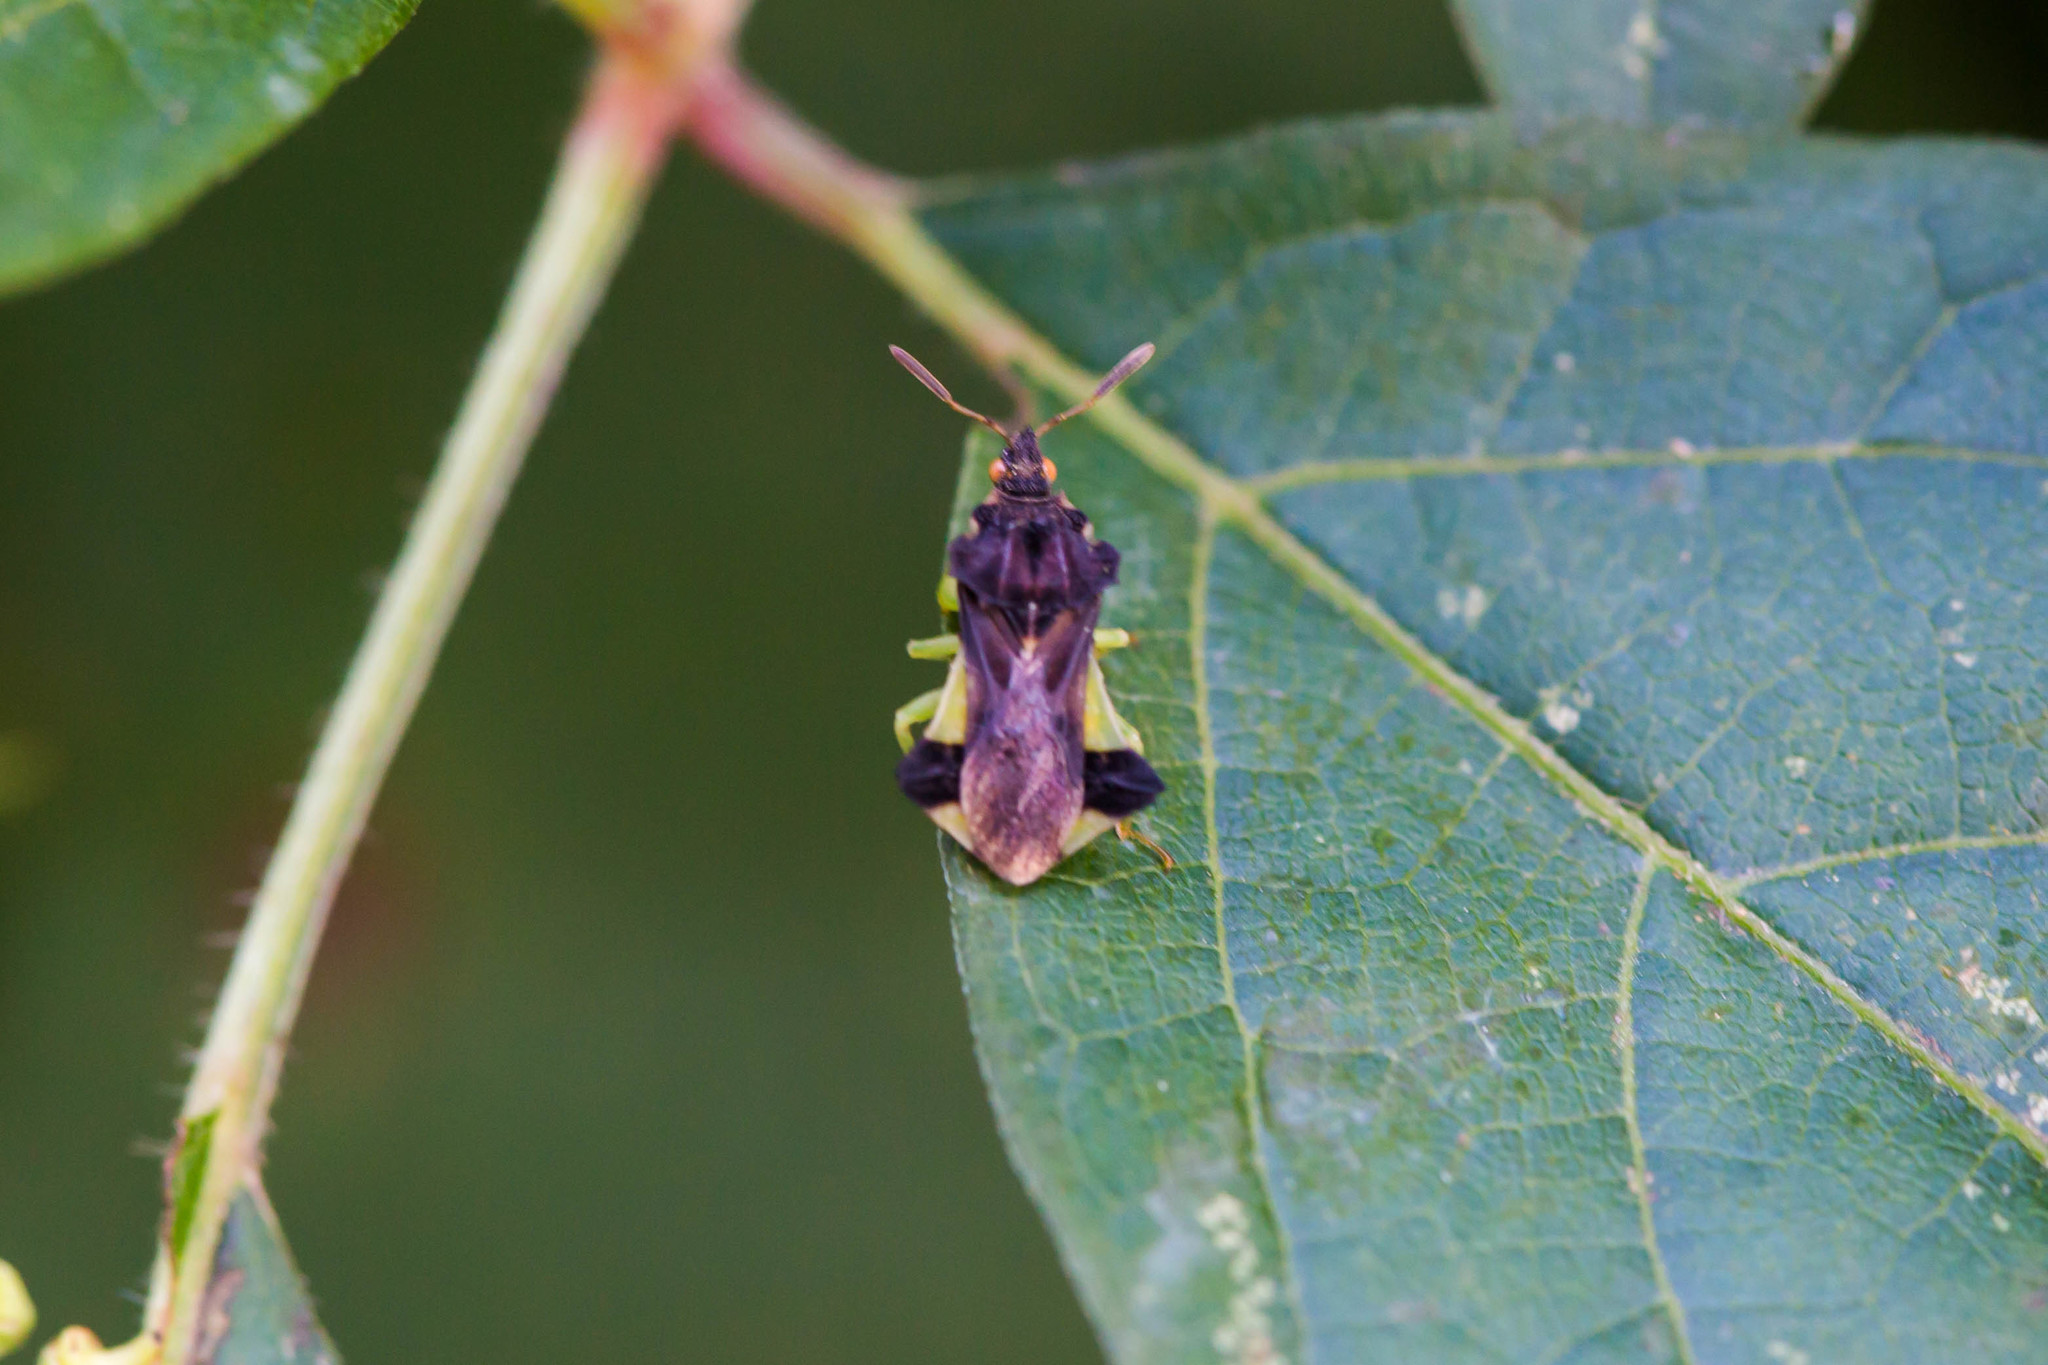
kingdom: Animalia
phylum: Arthropoda
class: Insecta
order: Hemiptera
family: Reduviidae
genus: Phymata
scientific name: Phymata pennsylvanica
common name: Pennsylvania ambush bug
